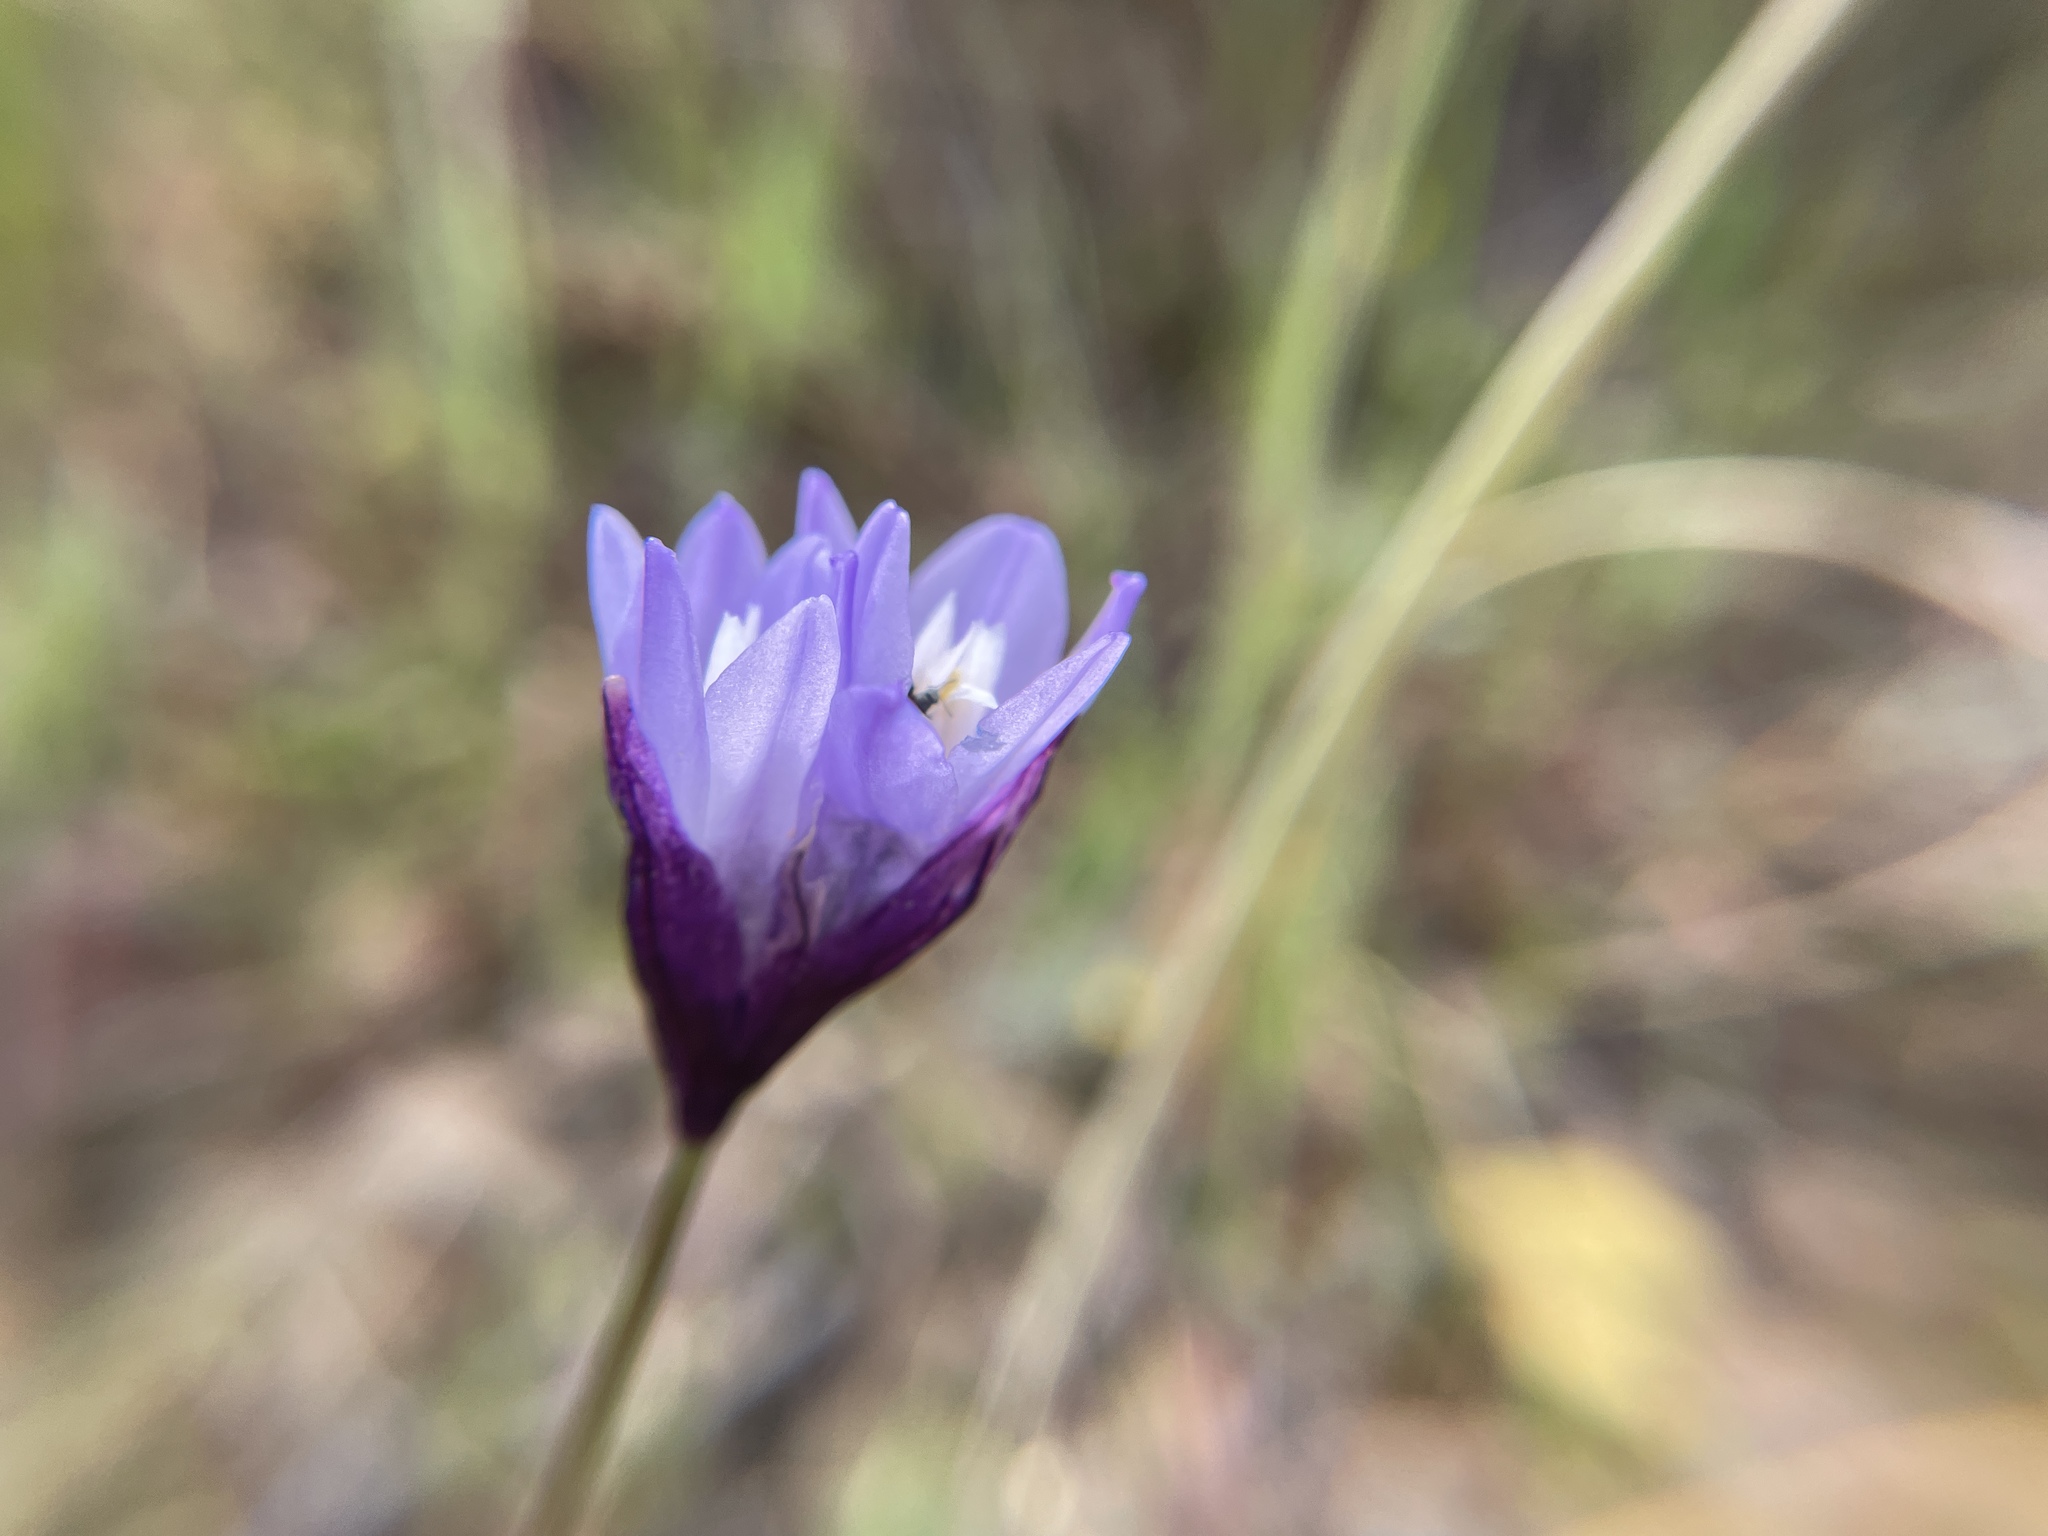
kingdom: Plantae
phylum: Tracheophyta
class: Liliopsida
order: Asparagales
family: Asparagaceae
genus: Dipterostemon
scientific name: Dipterostemon capitatus
